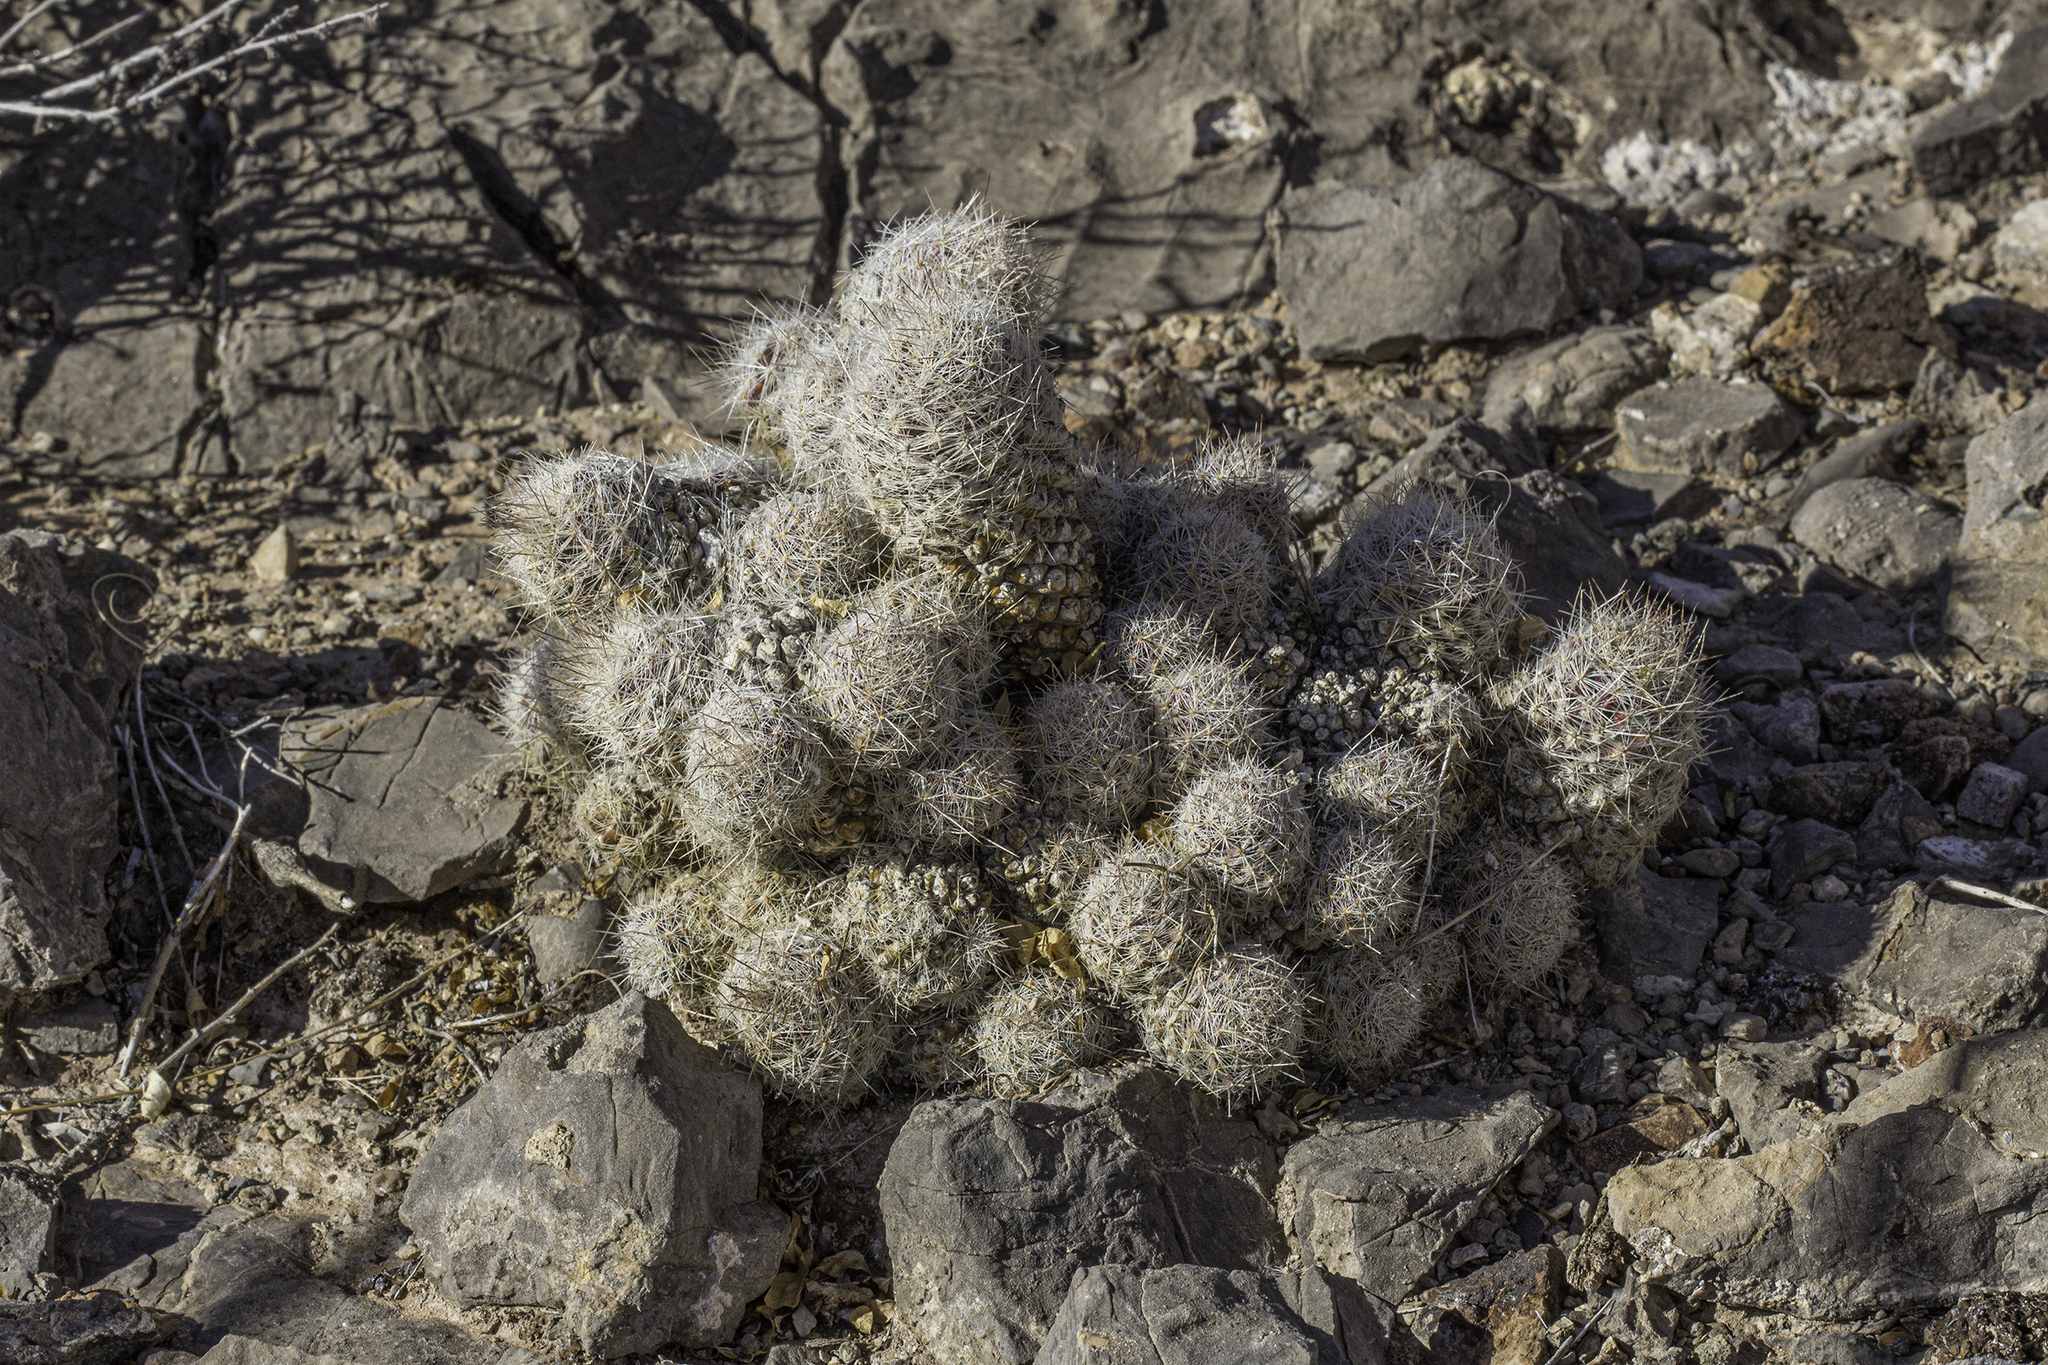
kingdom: Plantae
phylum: Tracheophyta
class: Magnoliopsida
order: Caryophyllales
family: Cactaceae
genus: Pelecyphora
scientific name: Pelecyphora tuberculosa
